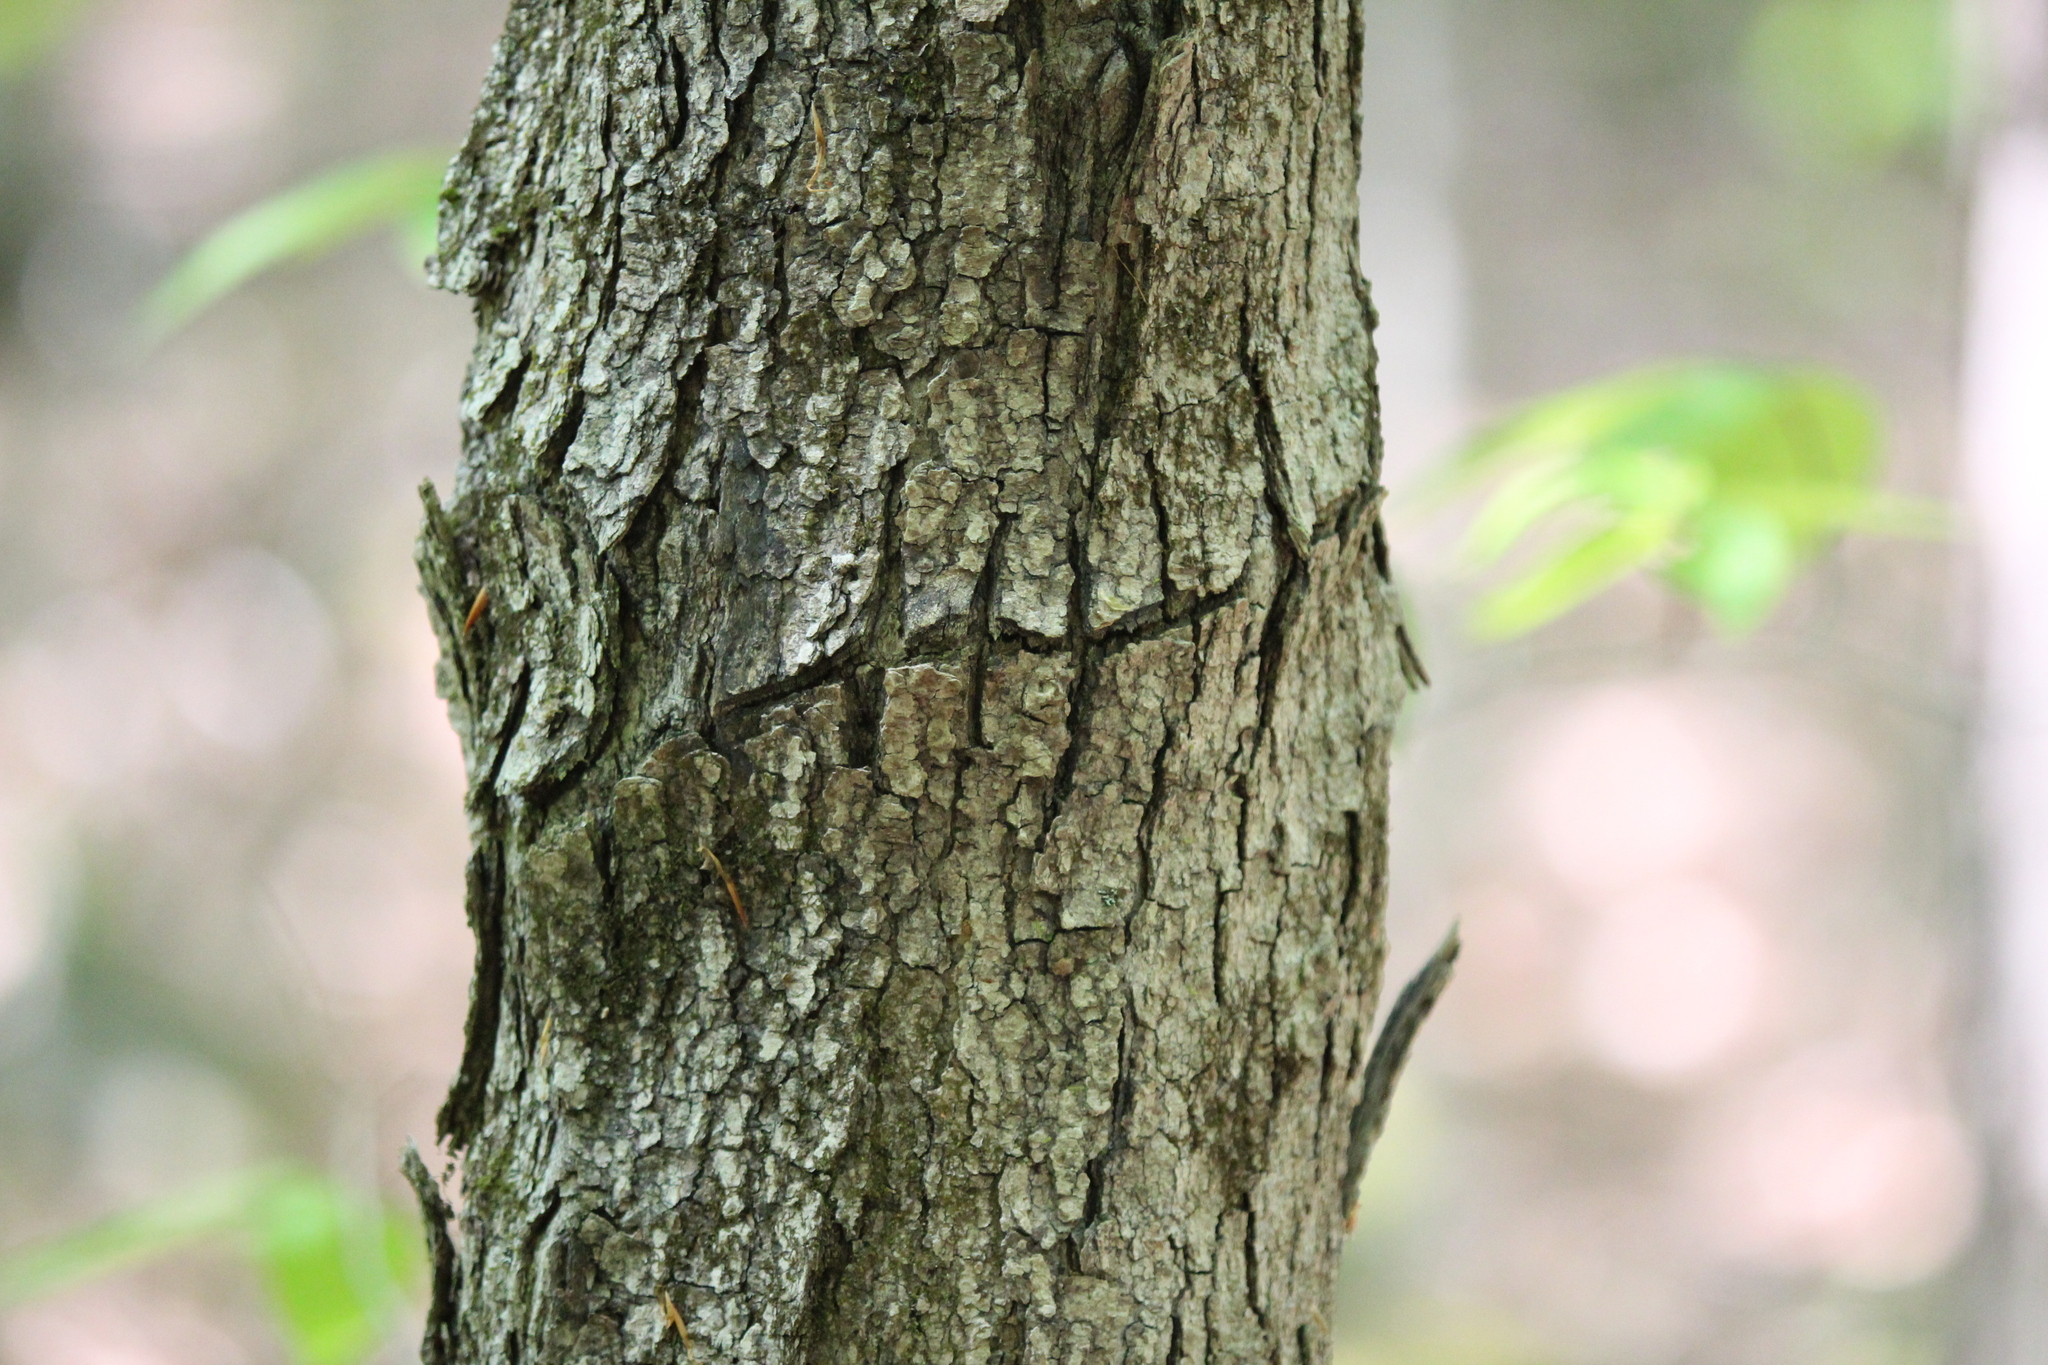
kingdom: Animalia
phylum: Arthropoda
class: Insecta
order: Coleoptera
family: Cerambycidae
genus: Glycobius
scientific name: Glycobius speciosus
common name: Sugar maple borer
